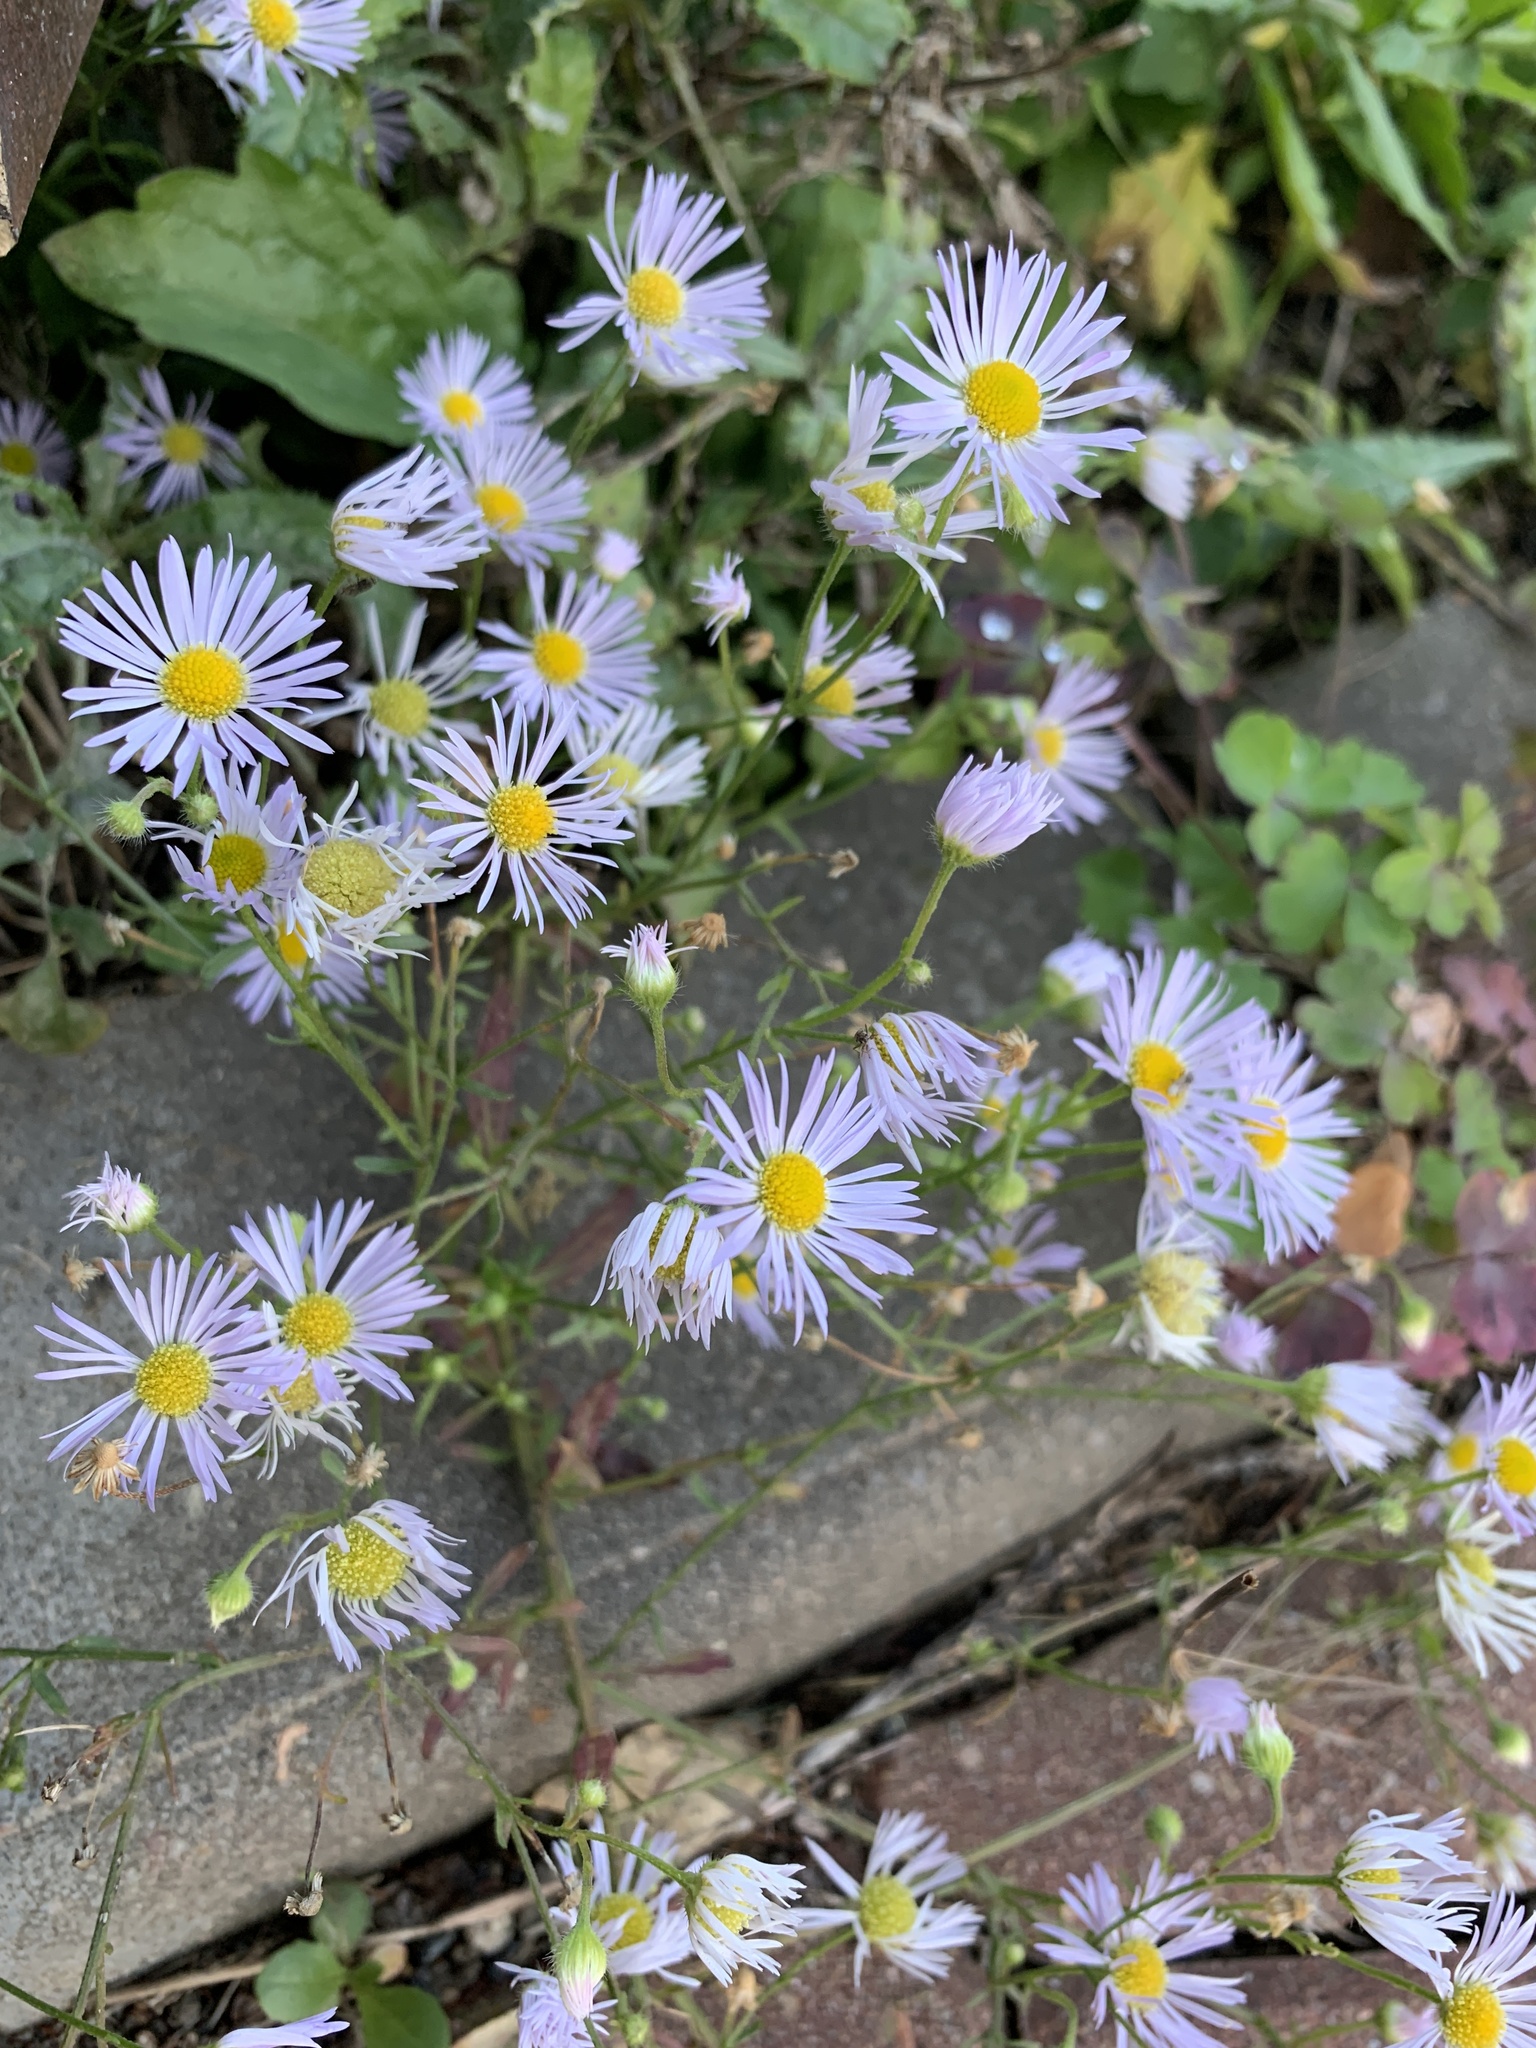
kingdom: Plantae
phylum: Tracheophyta
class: Magnoliopsida
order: Asterales
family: Asteraceae
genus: Erigeron
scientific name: Erigeron annuus
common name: Tall fleabane
